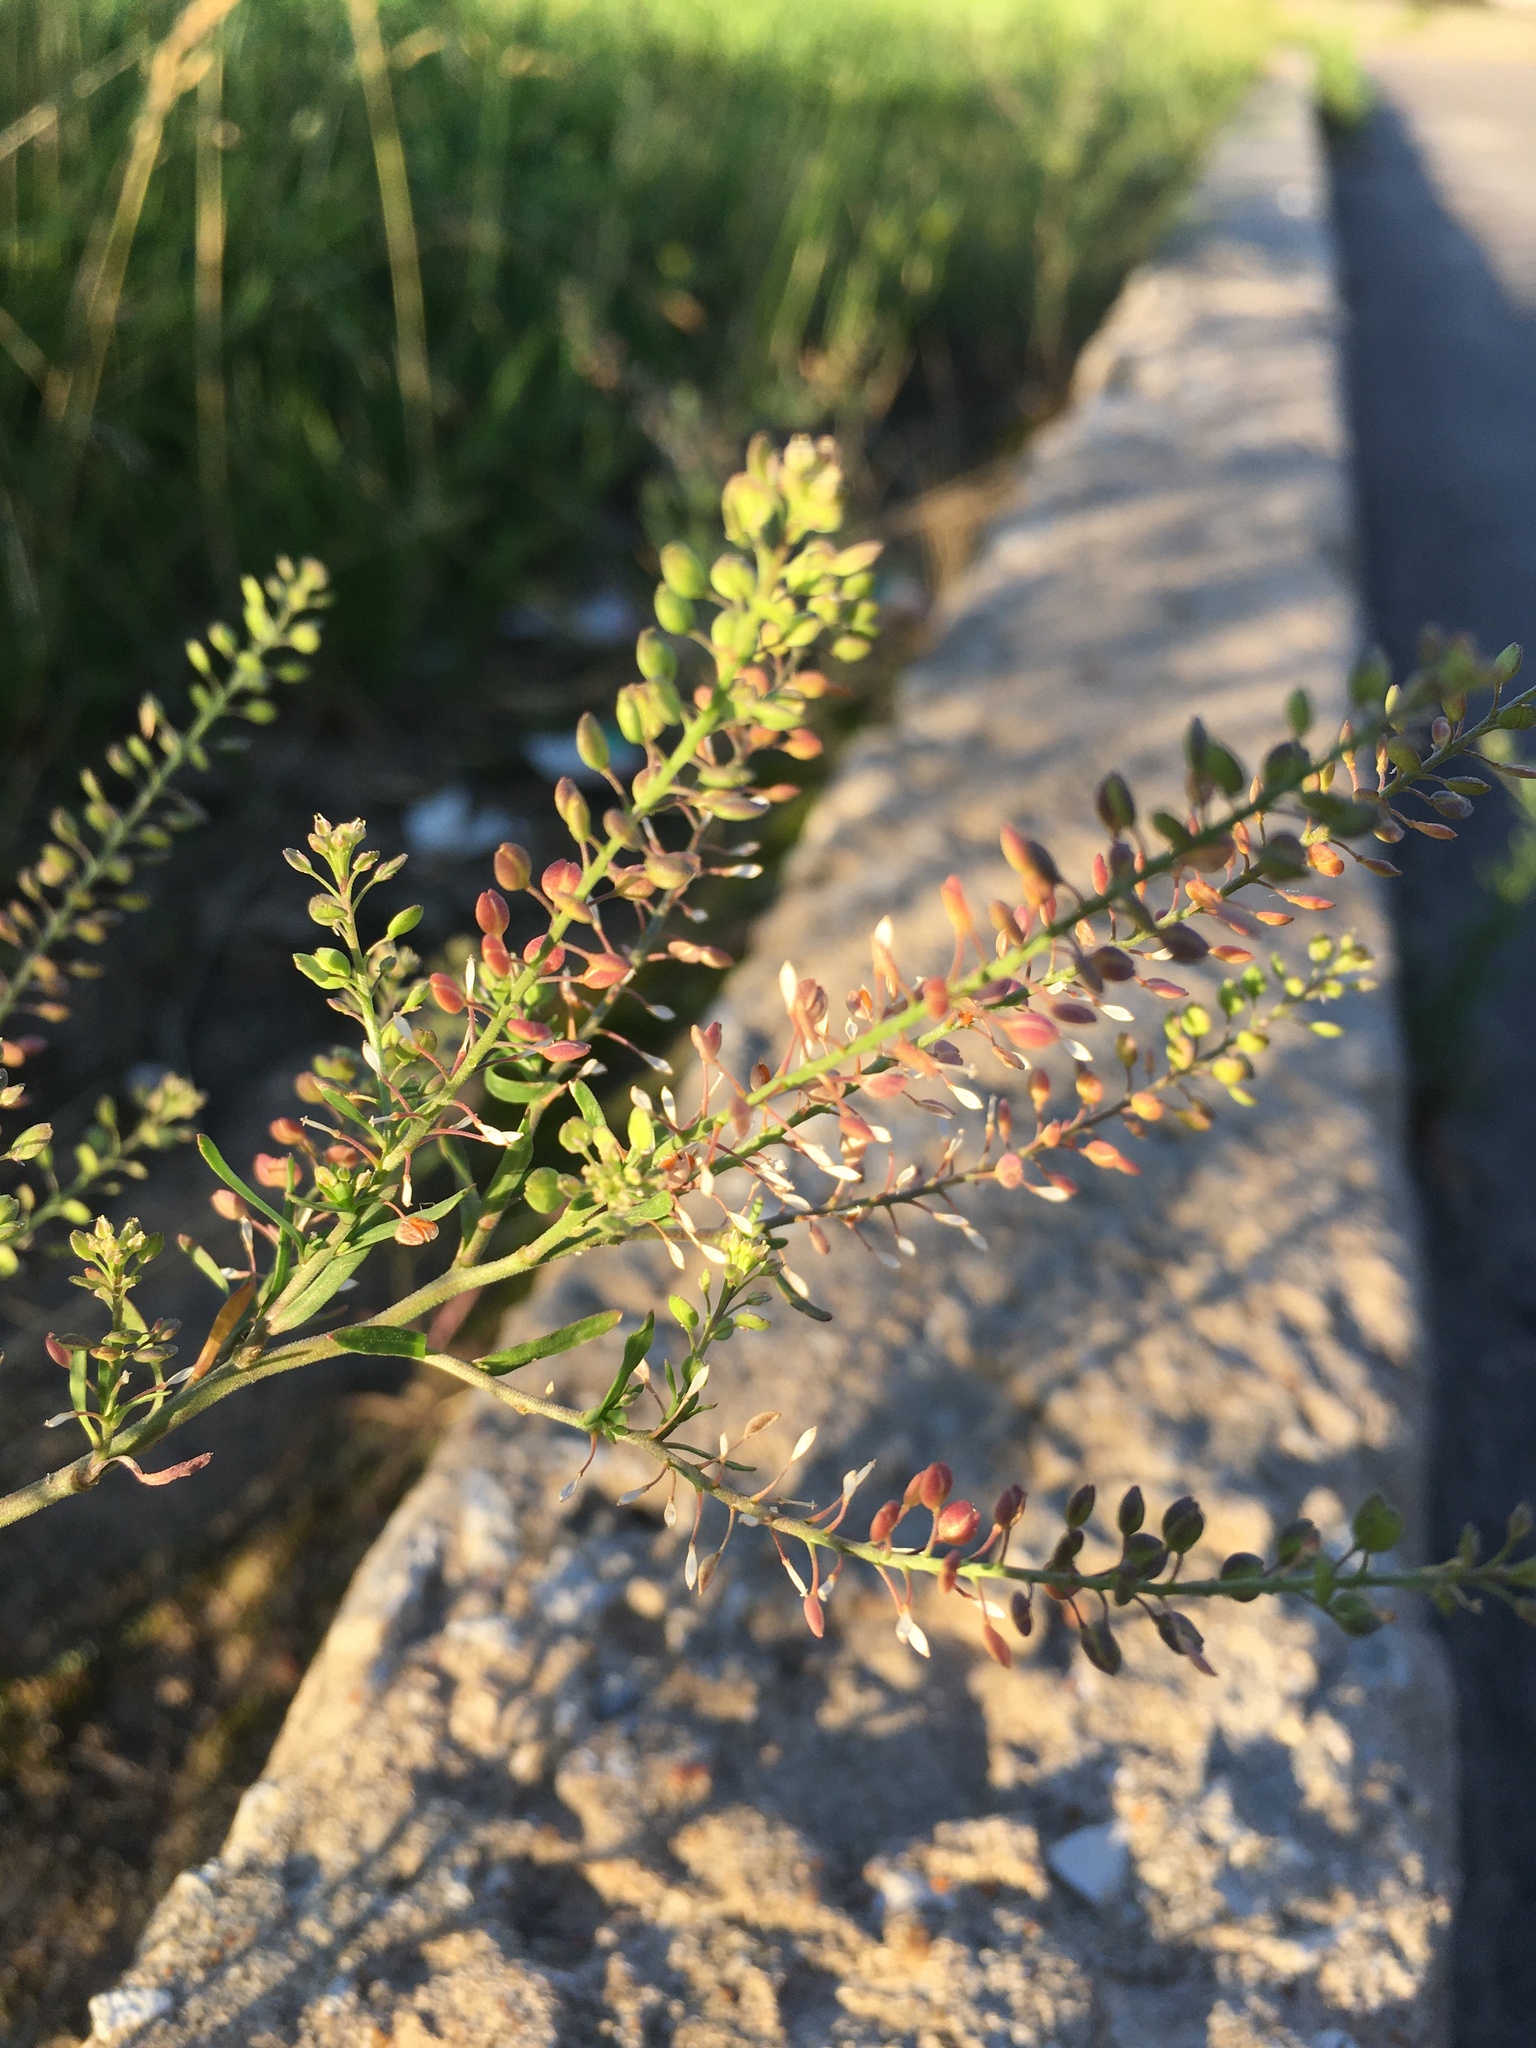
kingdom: Plantae
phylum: Tracheophyta
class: Magnoliopsida
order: Brassicales
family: Brassicaceae
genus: Lepidium
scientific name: Lepidium ruderale
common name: Narrow-leaved pepperwort
